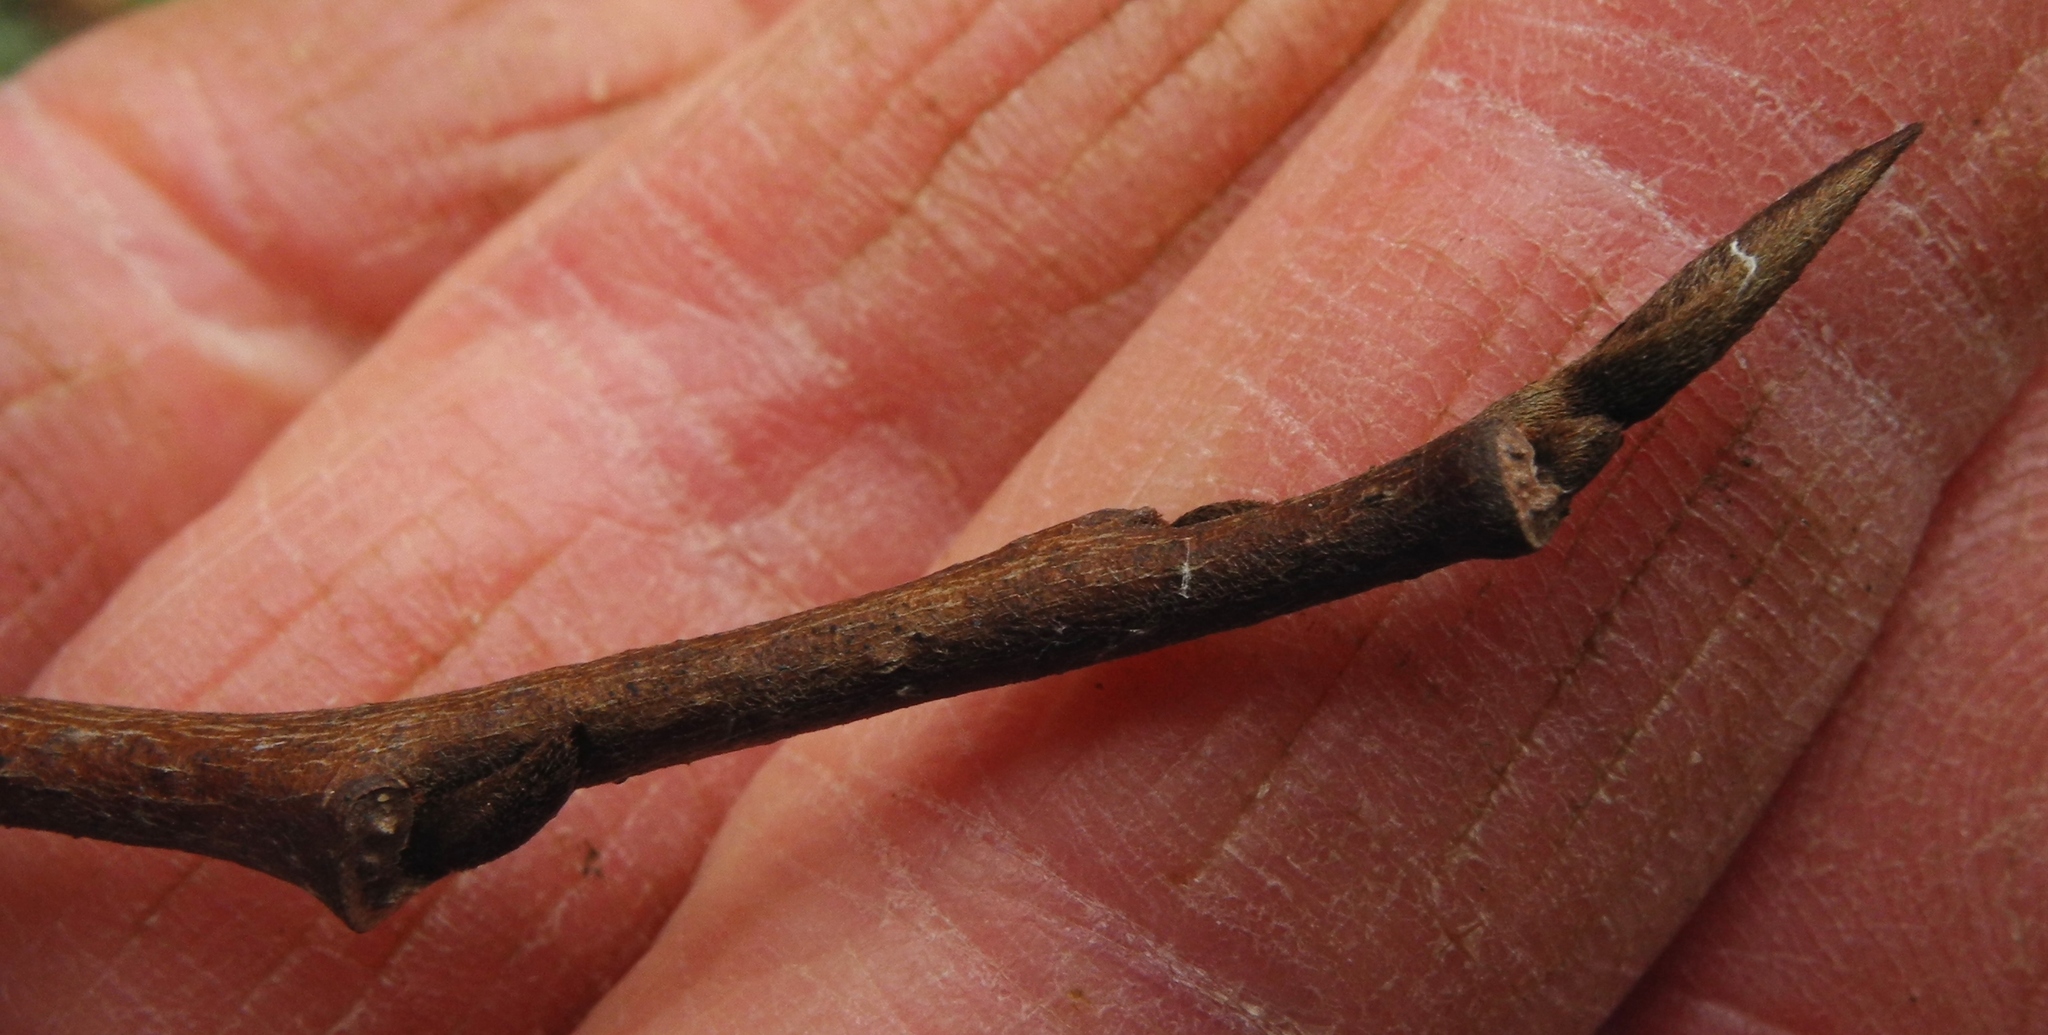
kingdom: Plantae
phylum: Tracheophyta
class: Magnoliopsida
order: Magnoliales
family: Annonaceae
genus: Asimina
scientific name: Asimina triloba
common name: Dog-banana
